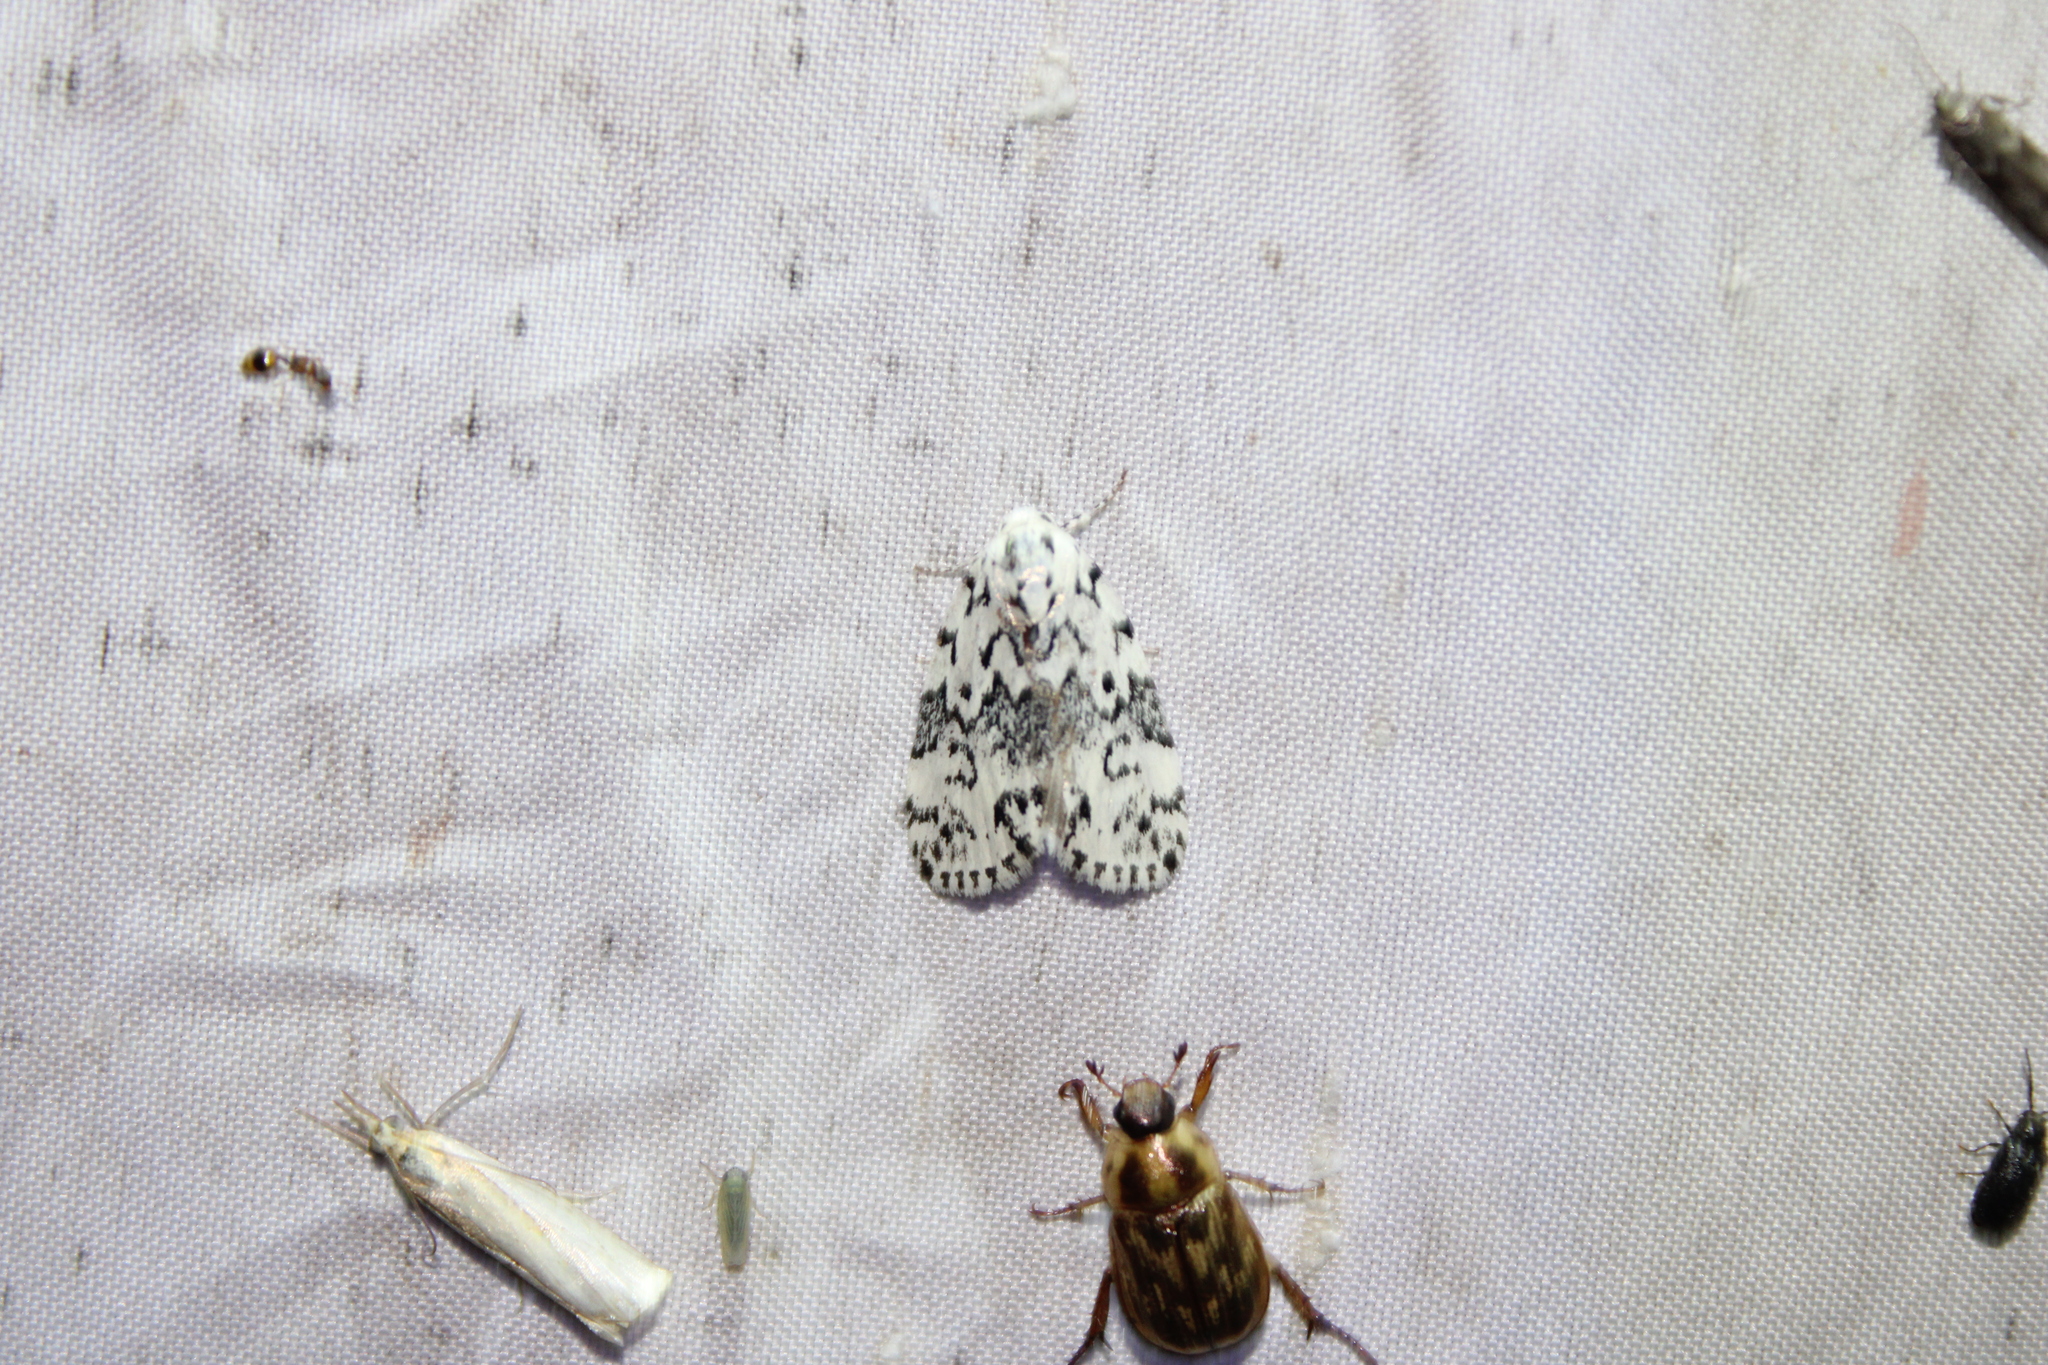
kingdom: Animalia
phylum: Arthropoda
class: Insecta
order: Lepidoptera
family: Noctuidae
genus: Polygrammate
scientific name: Polygrammate hebraeicum
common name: Hebrew moth
